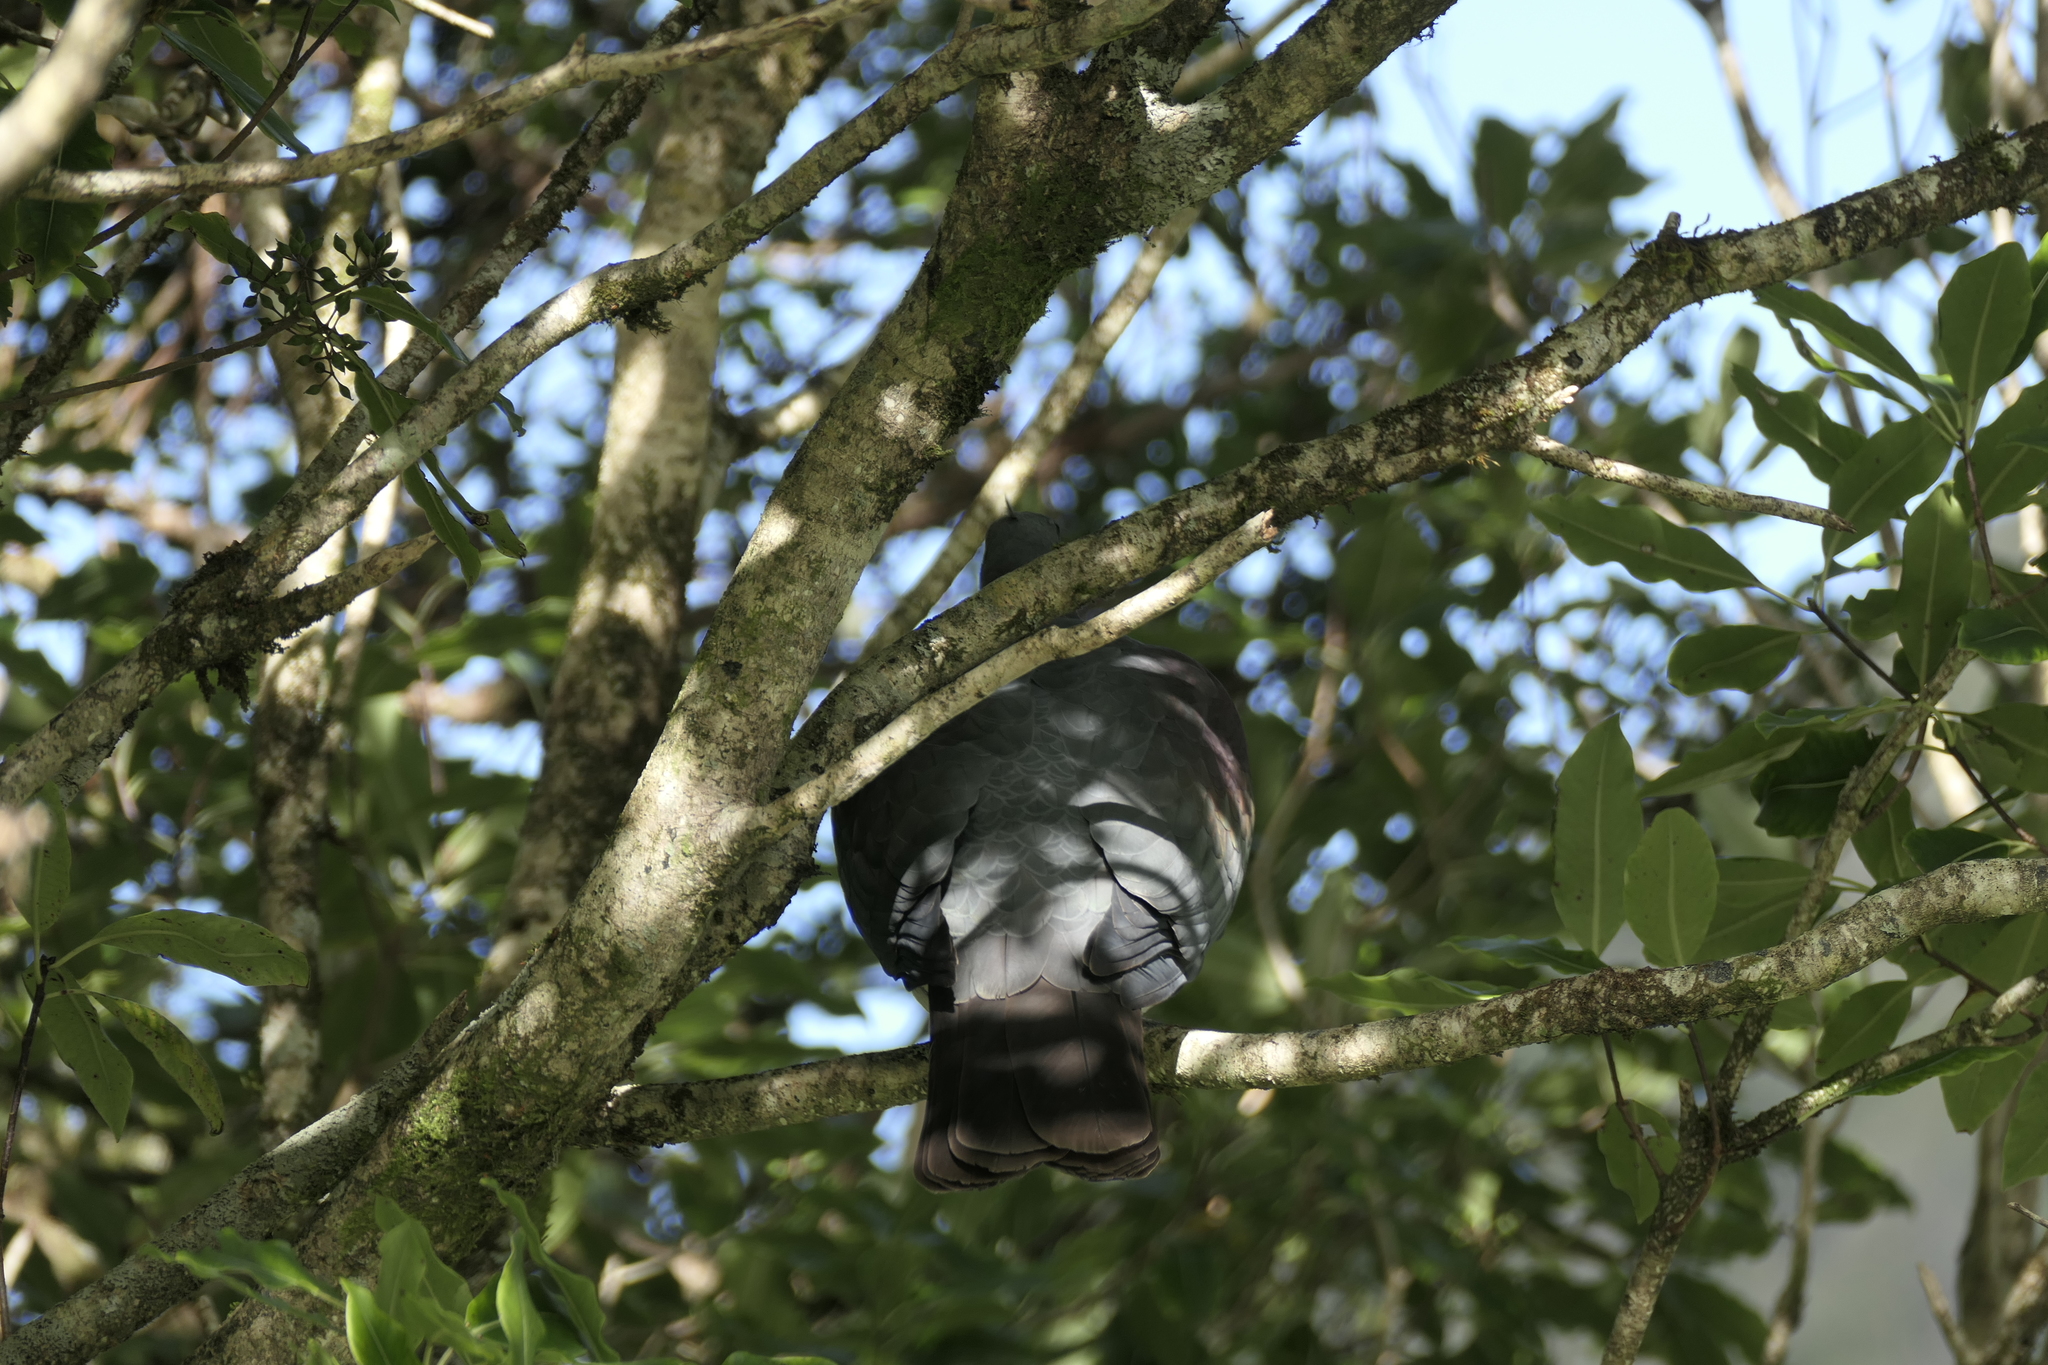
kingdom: Animalia
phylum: Chordata
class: Aves
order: Columbiformes
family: Columbidae
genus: Hemiphaga
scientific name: Hemiphaga novaeseelandiae
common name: New zealand pigeon
